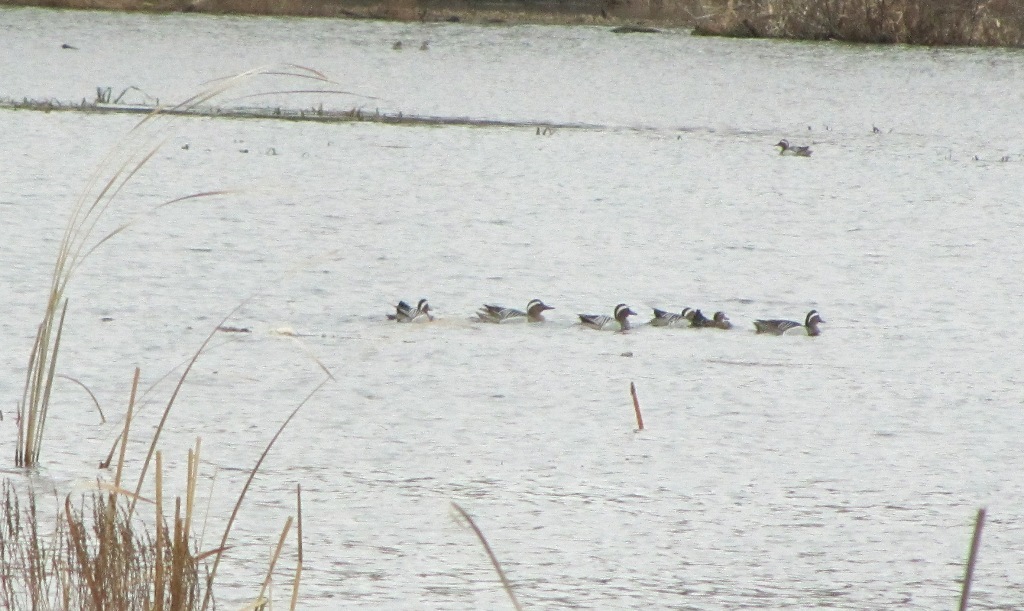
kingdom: Animalia
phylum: Chordata
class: Aves
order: Anseriformes
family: Anatidae
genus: Spatula
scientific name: Spatula querquedula
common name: Garganey
